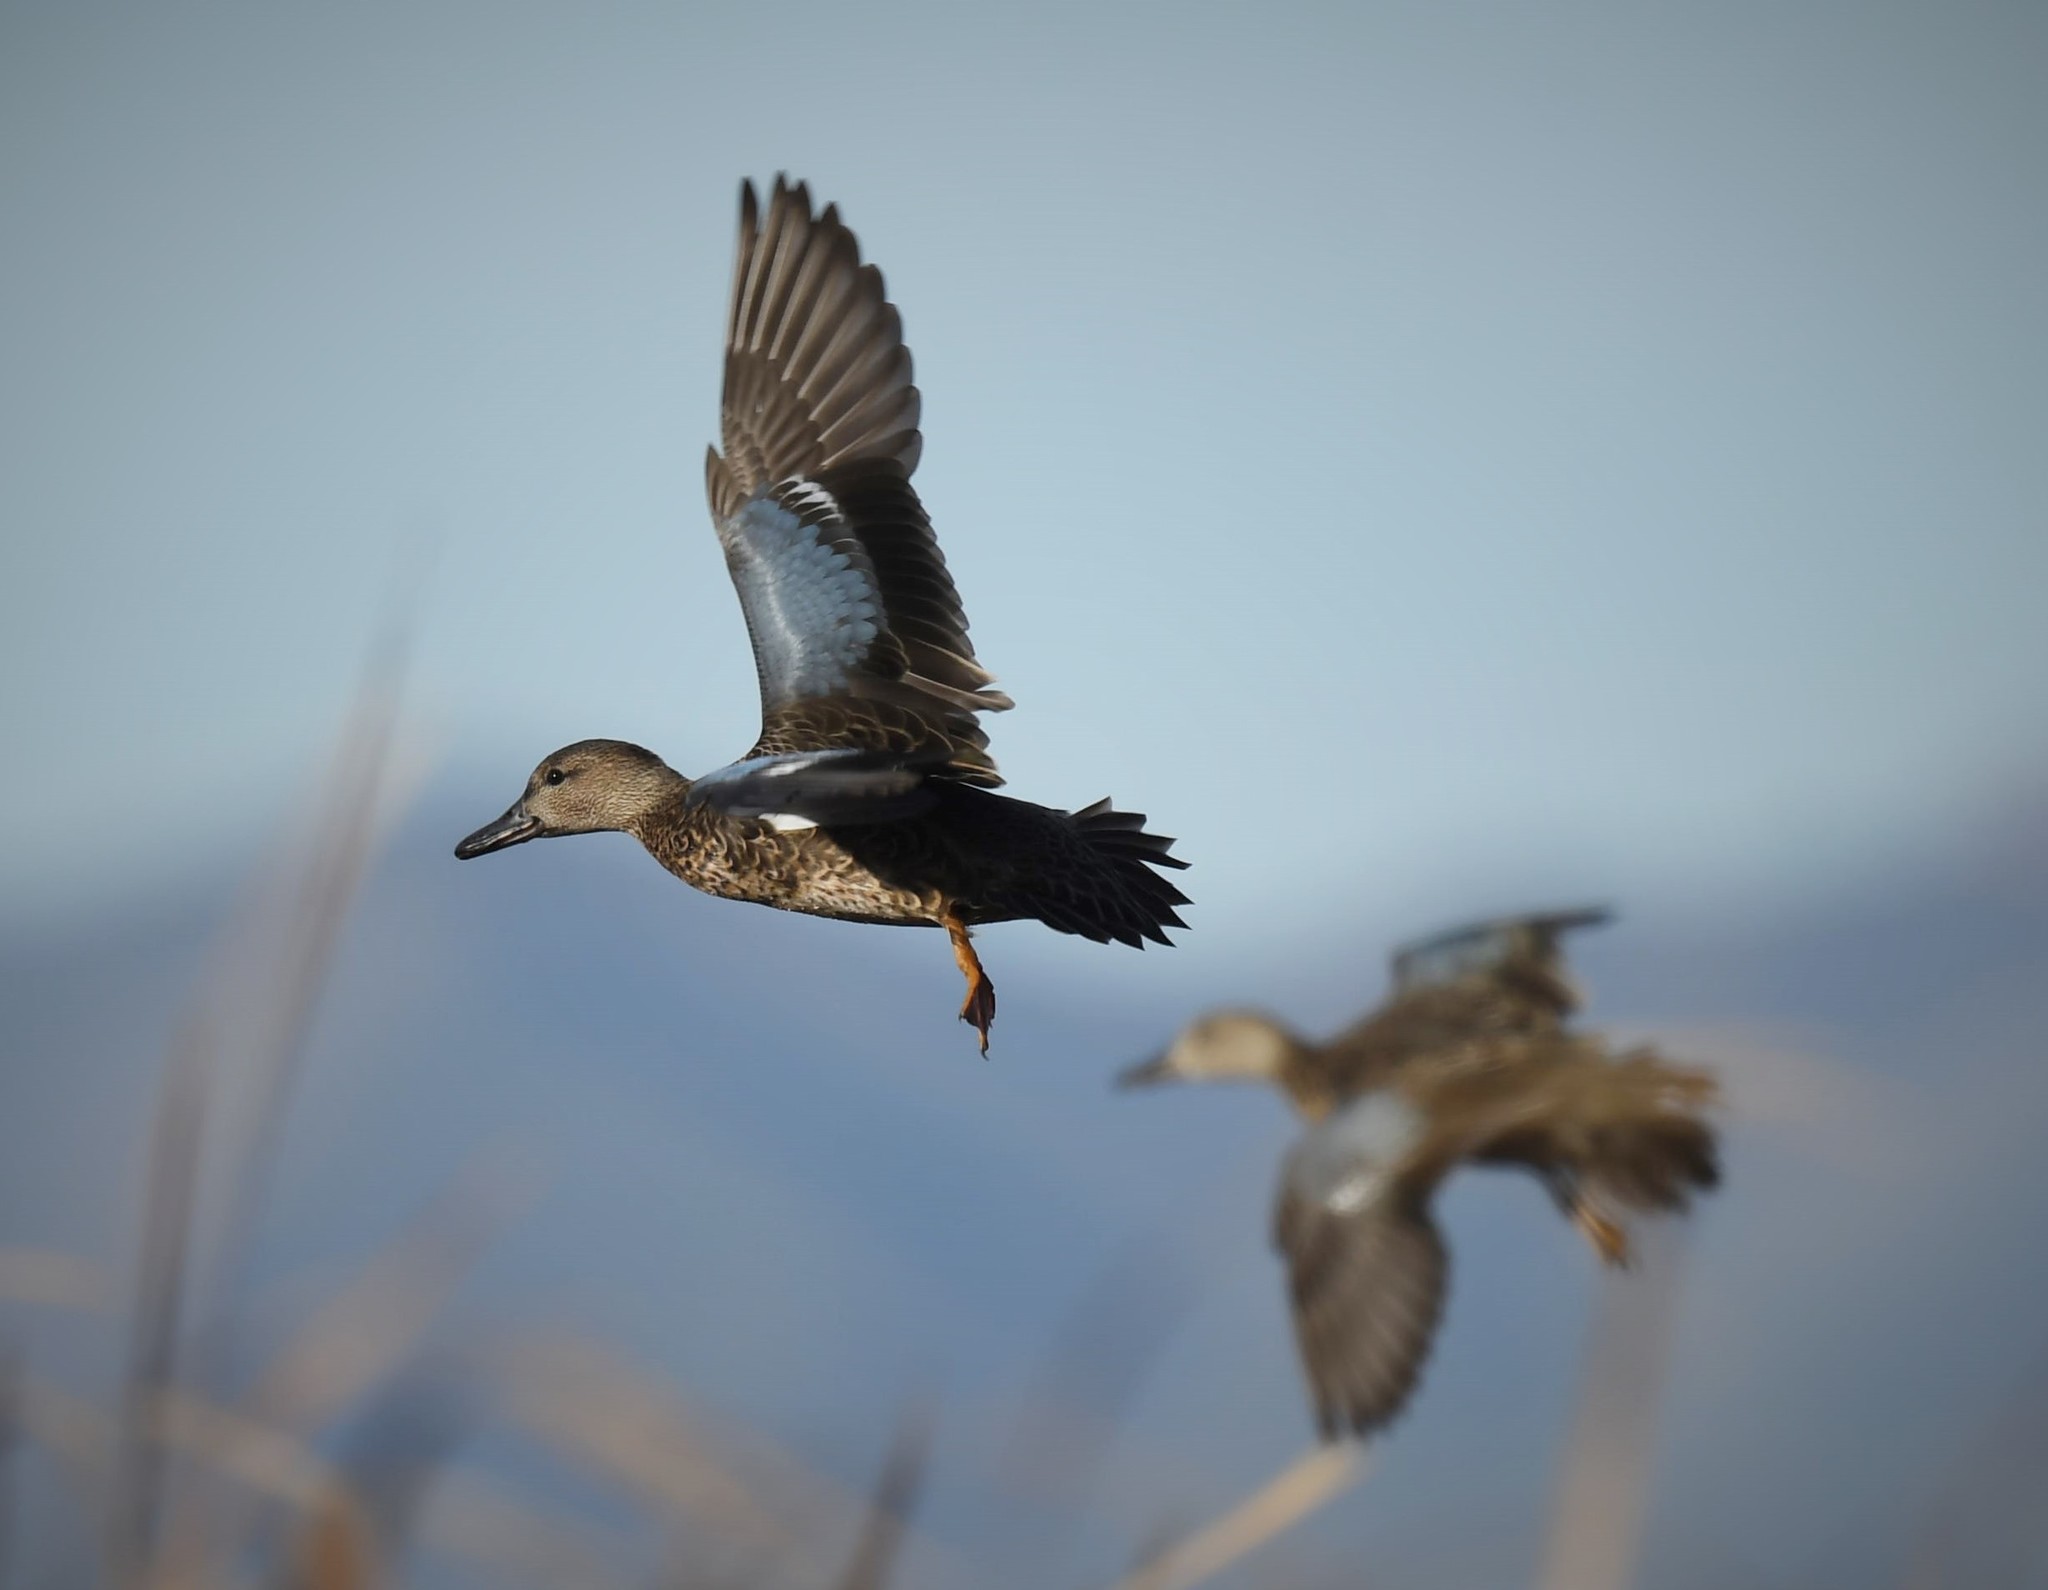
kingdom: Animalia
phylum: Chordata
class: Aves
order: Anseriformes
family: Anatidae
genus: Spatula
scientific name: Spatula cyanoptera
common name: Cinnamon teal
